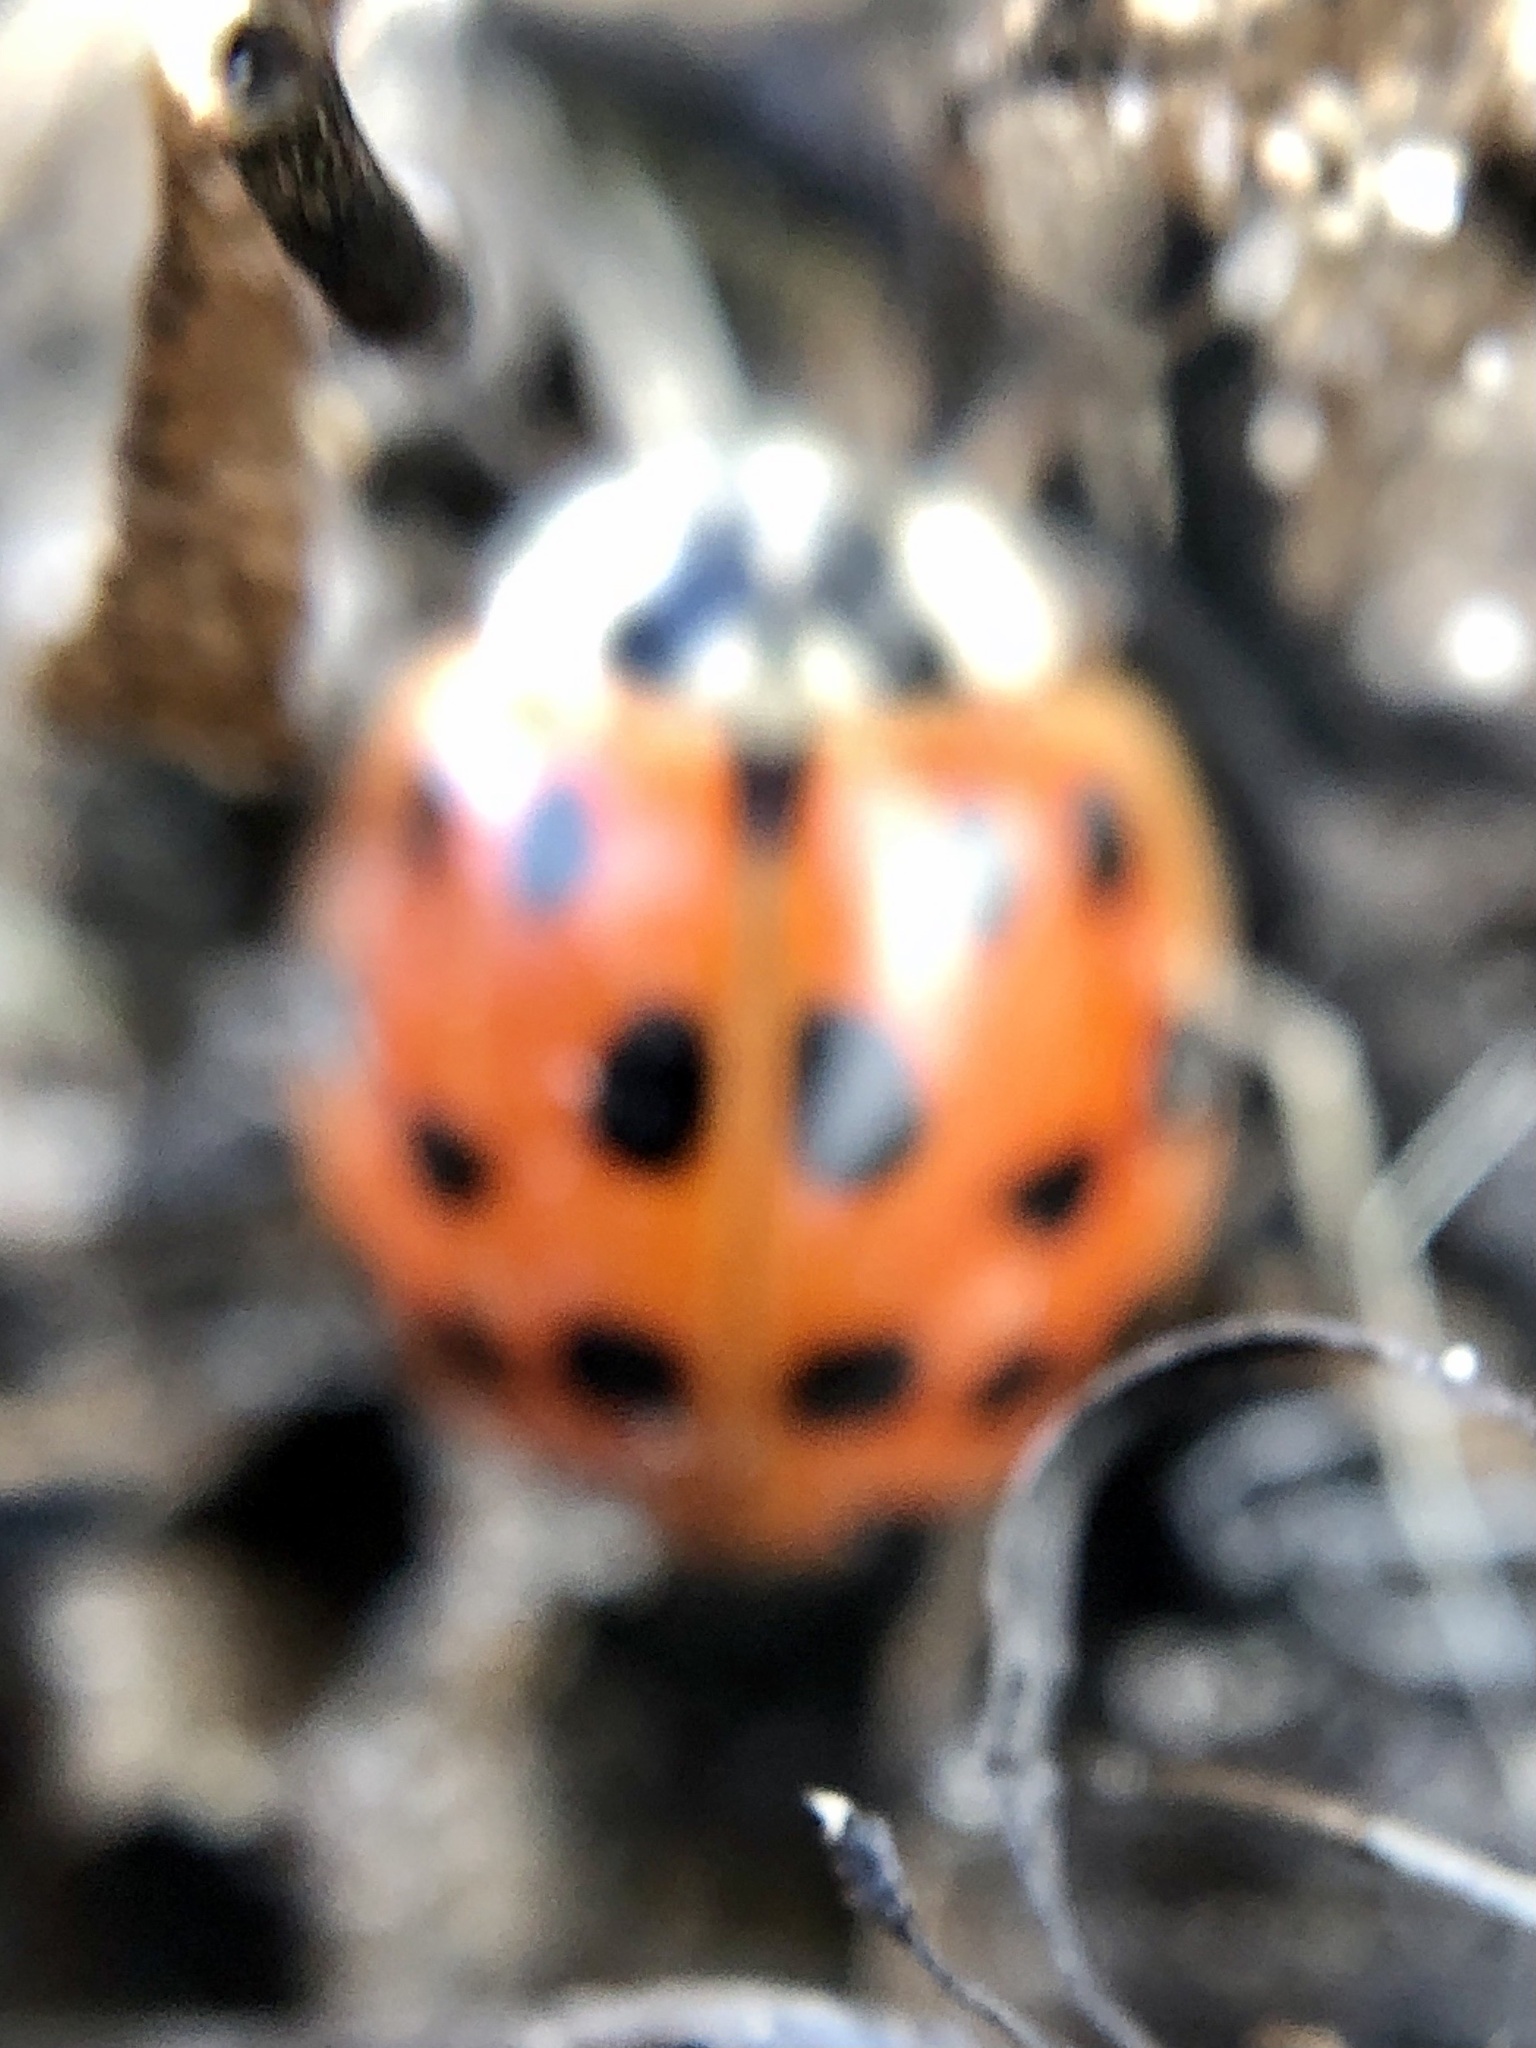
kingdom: Animalia
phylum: Arthropoda
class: Insecta
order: Coleoptera
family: Coccinellidae
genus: Harmonia
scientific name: Harmonia axyridis
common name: Harlequin ladybird
